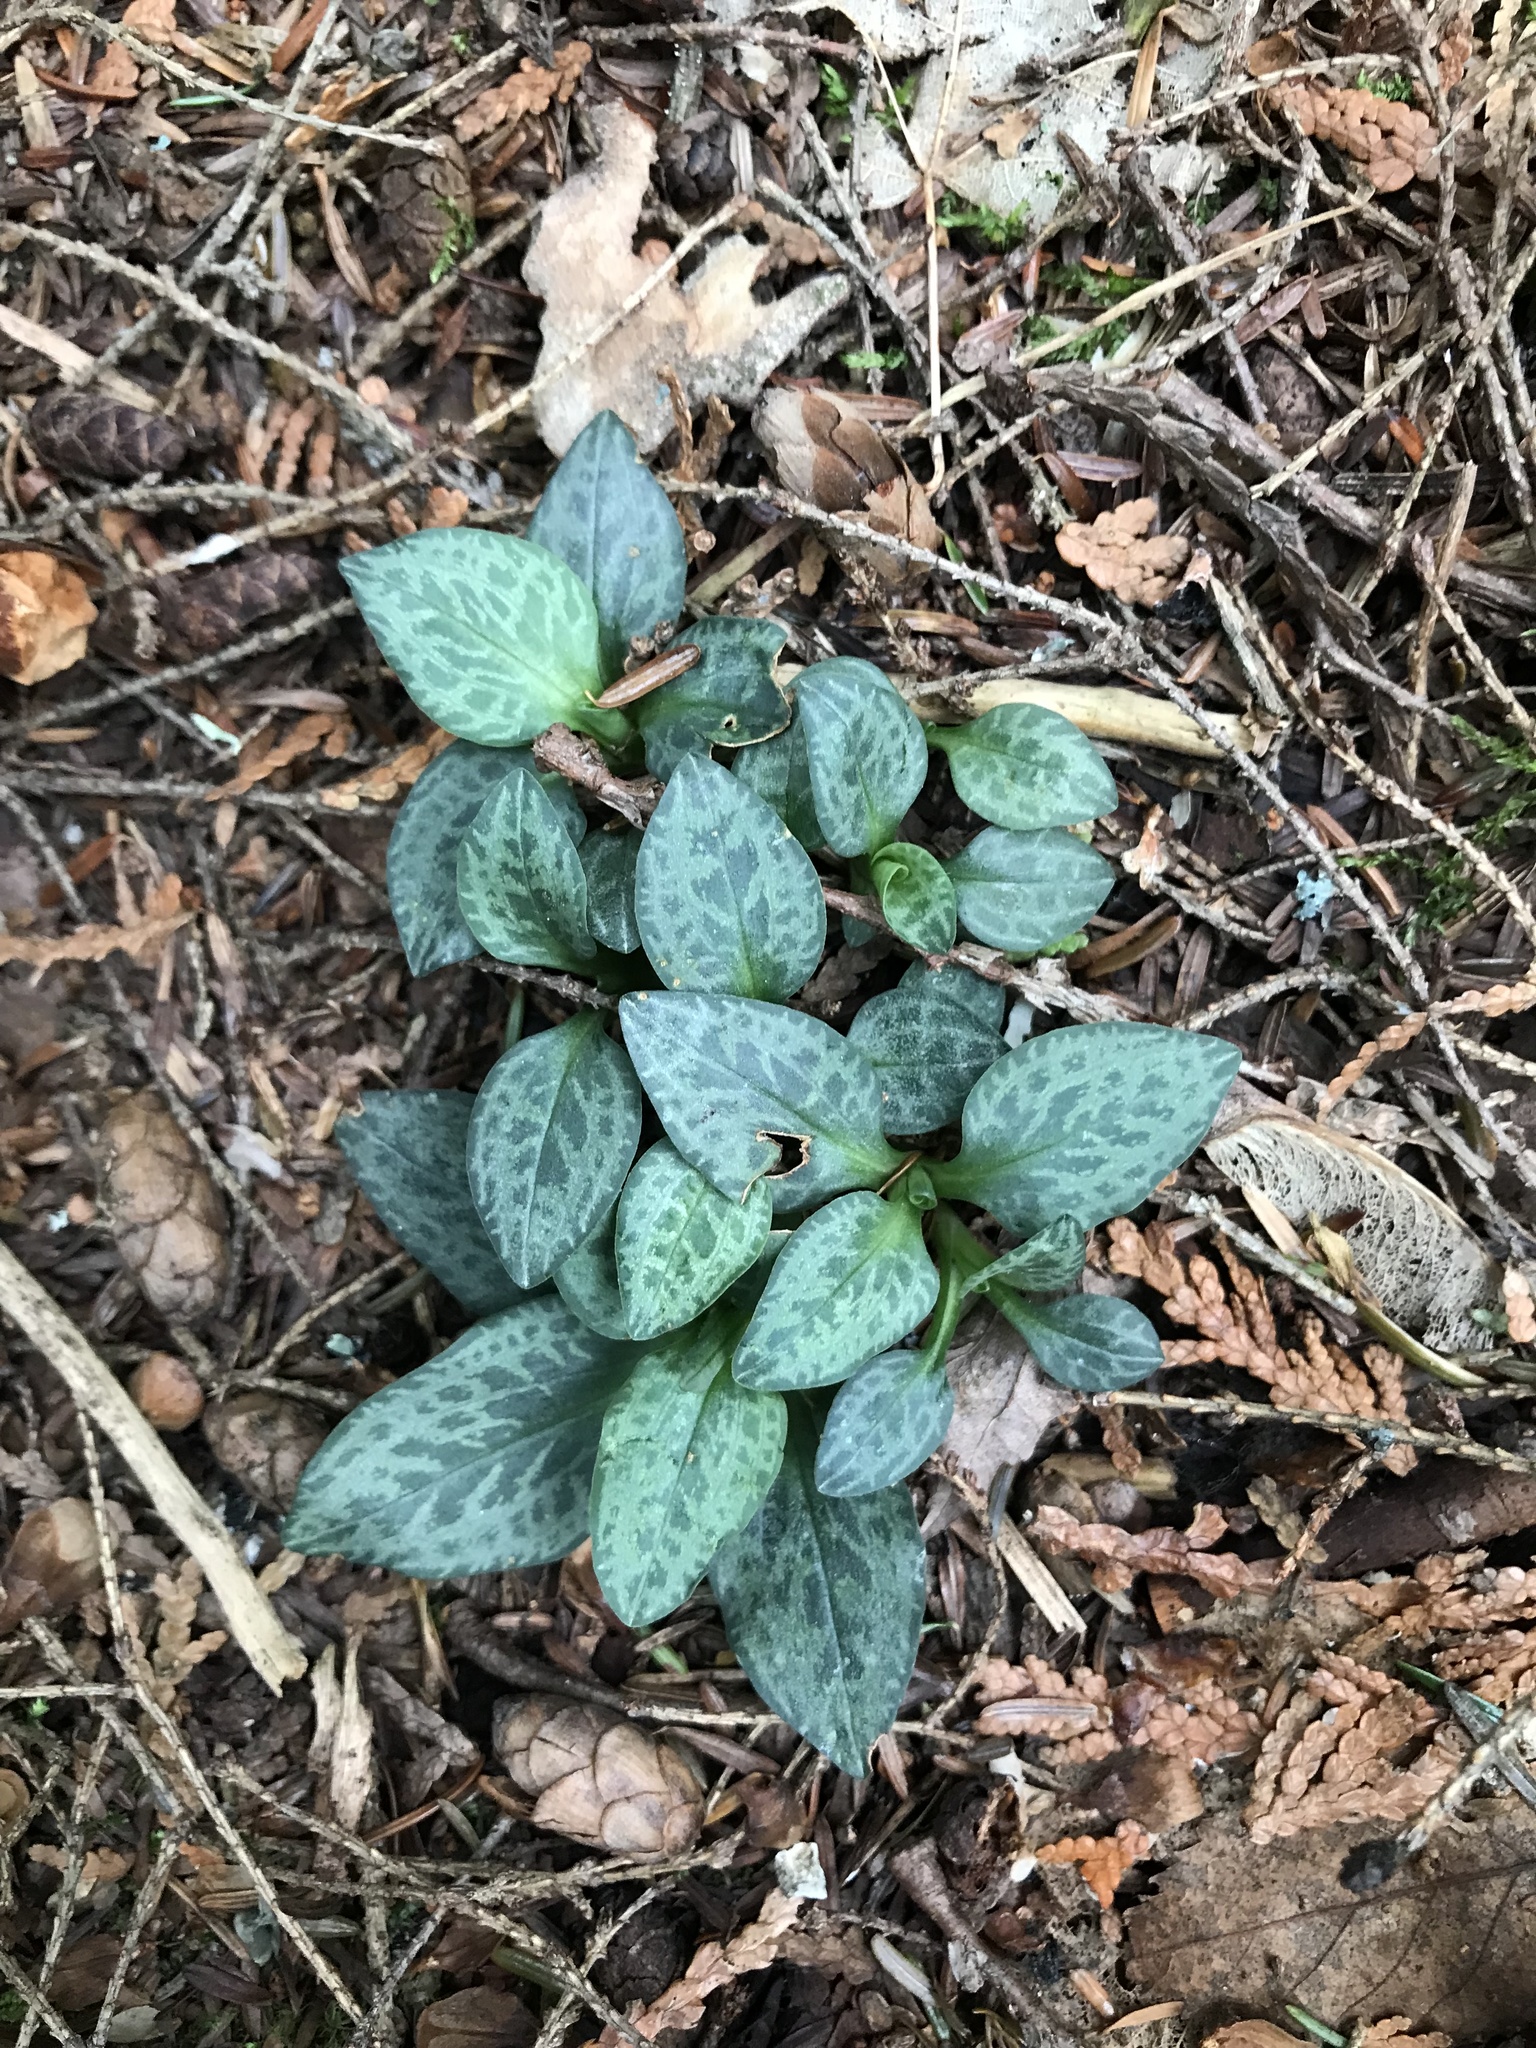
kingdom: Plantae
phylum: Tracheophyta
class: Liliopsida
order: Asparagales
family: Orchidaceae
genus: Goodyera
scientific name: Goodyera tesselata
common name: Checkered rattlesnake-plantain
